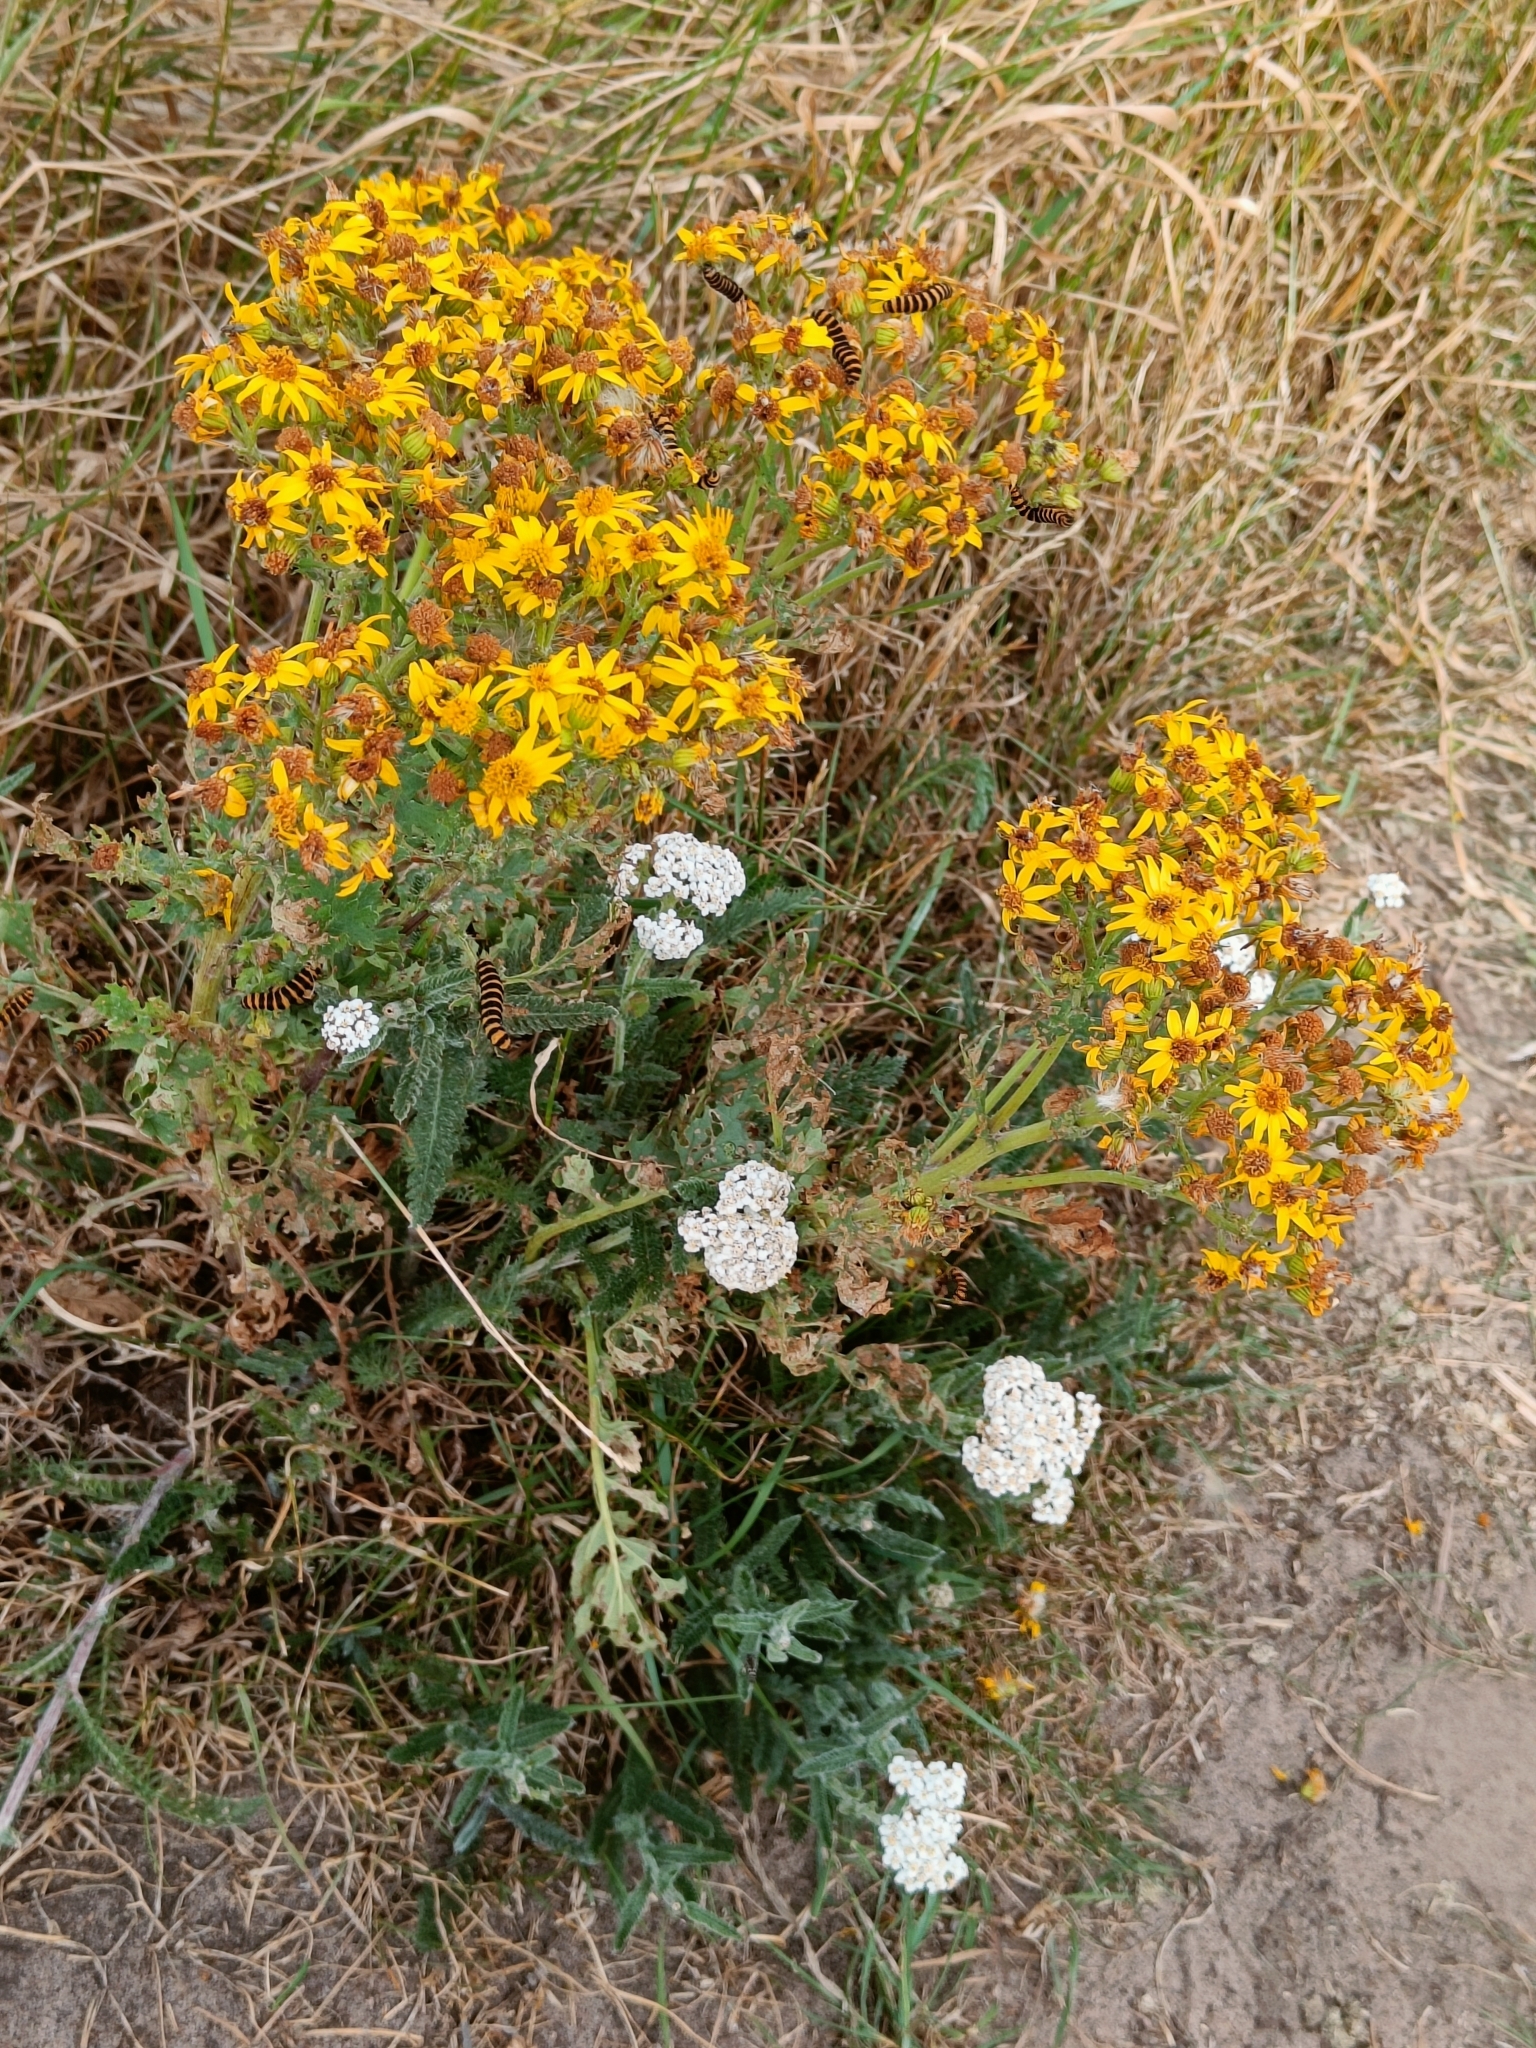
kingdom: Plantae
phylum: Tracheophyta
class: Magnoliopsida
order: Asterales
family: Asteraceae
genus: Jacobaea
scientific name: Jacobaea vulgaris
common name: Stinking willie
